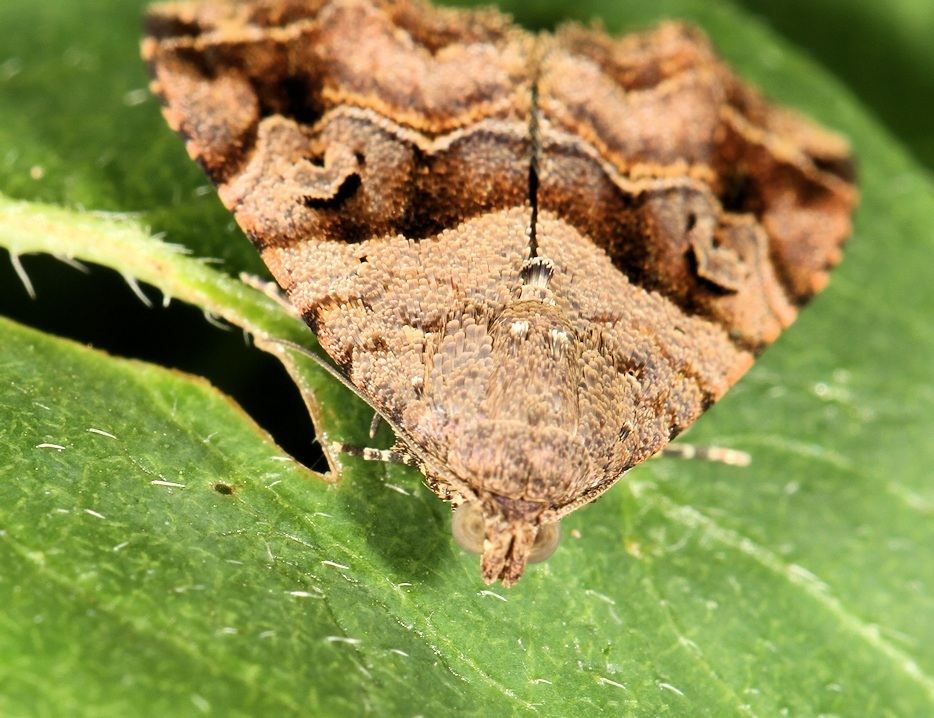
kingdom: Animalia
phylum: Arthropoda
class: Insecta
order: Lepidoptera
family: Noctuidae
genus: Ozarba
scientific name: Ozarba plagifera
